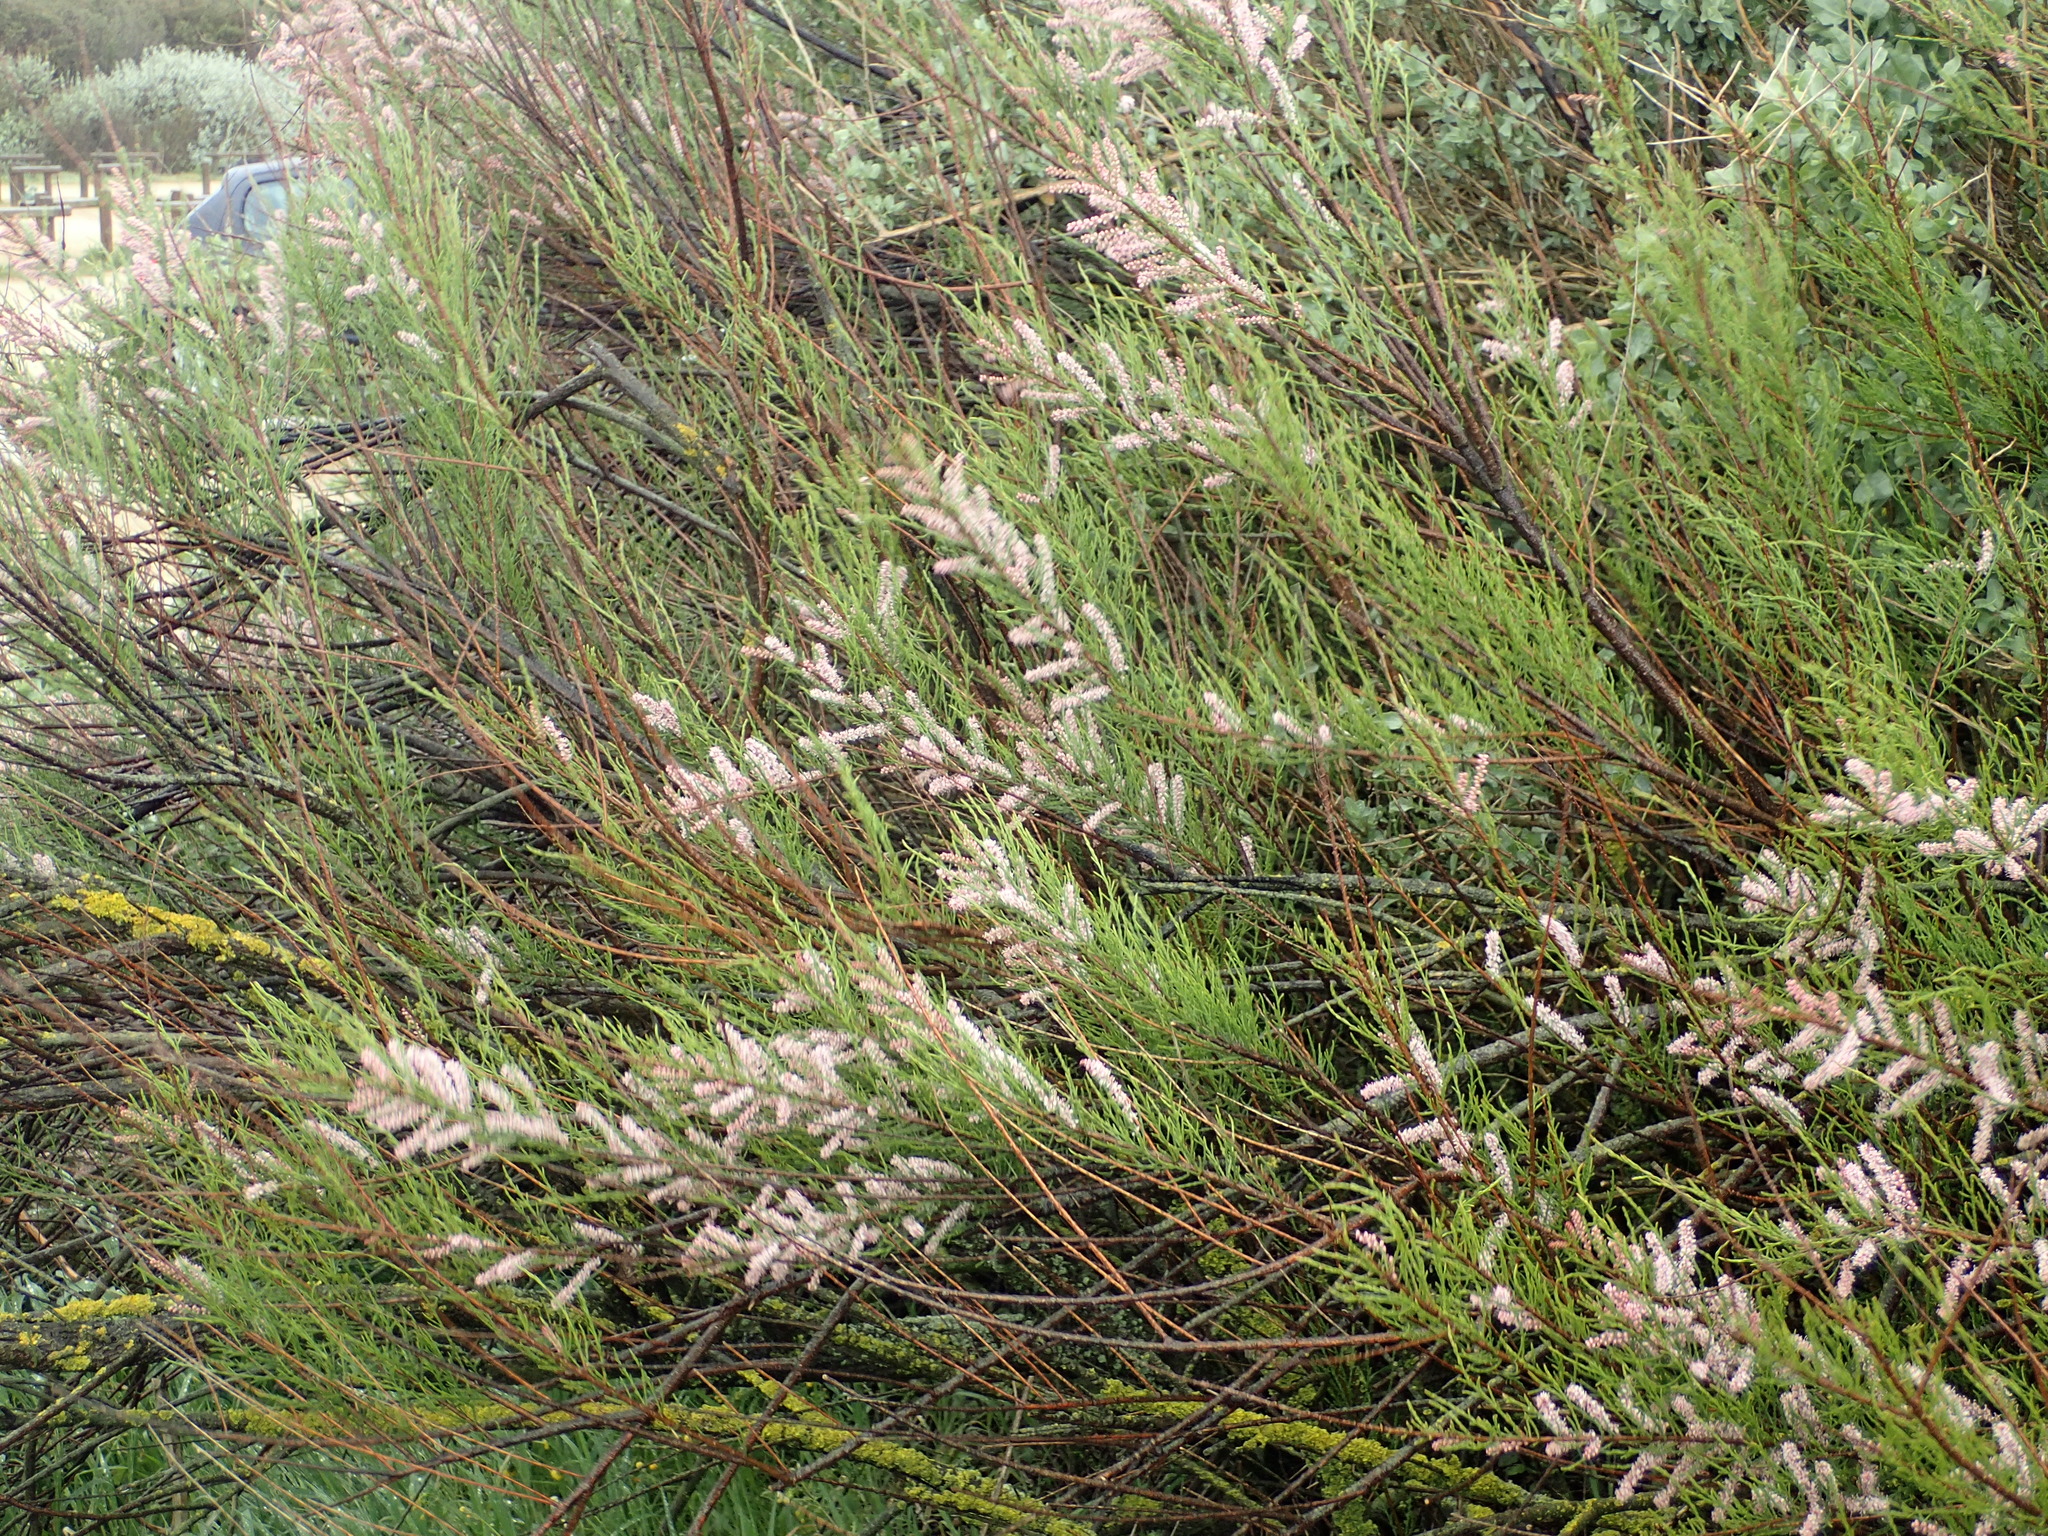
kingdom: Plantae
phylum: Tracheophyta
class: Magnoliopsida
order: Caryophyllales
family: Tamaricaceae
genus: Tamarix
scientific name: Tamarix gallica
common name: Tamarisk
